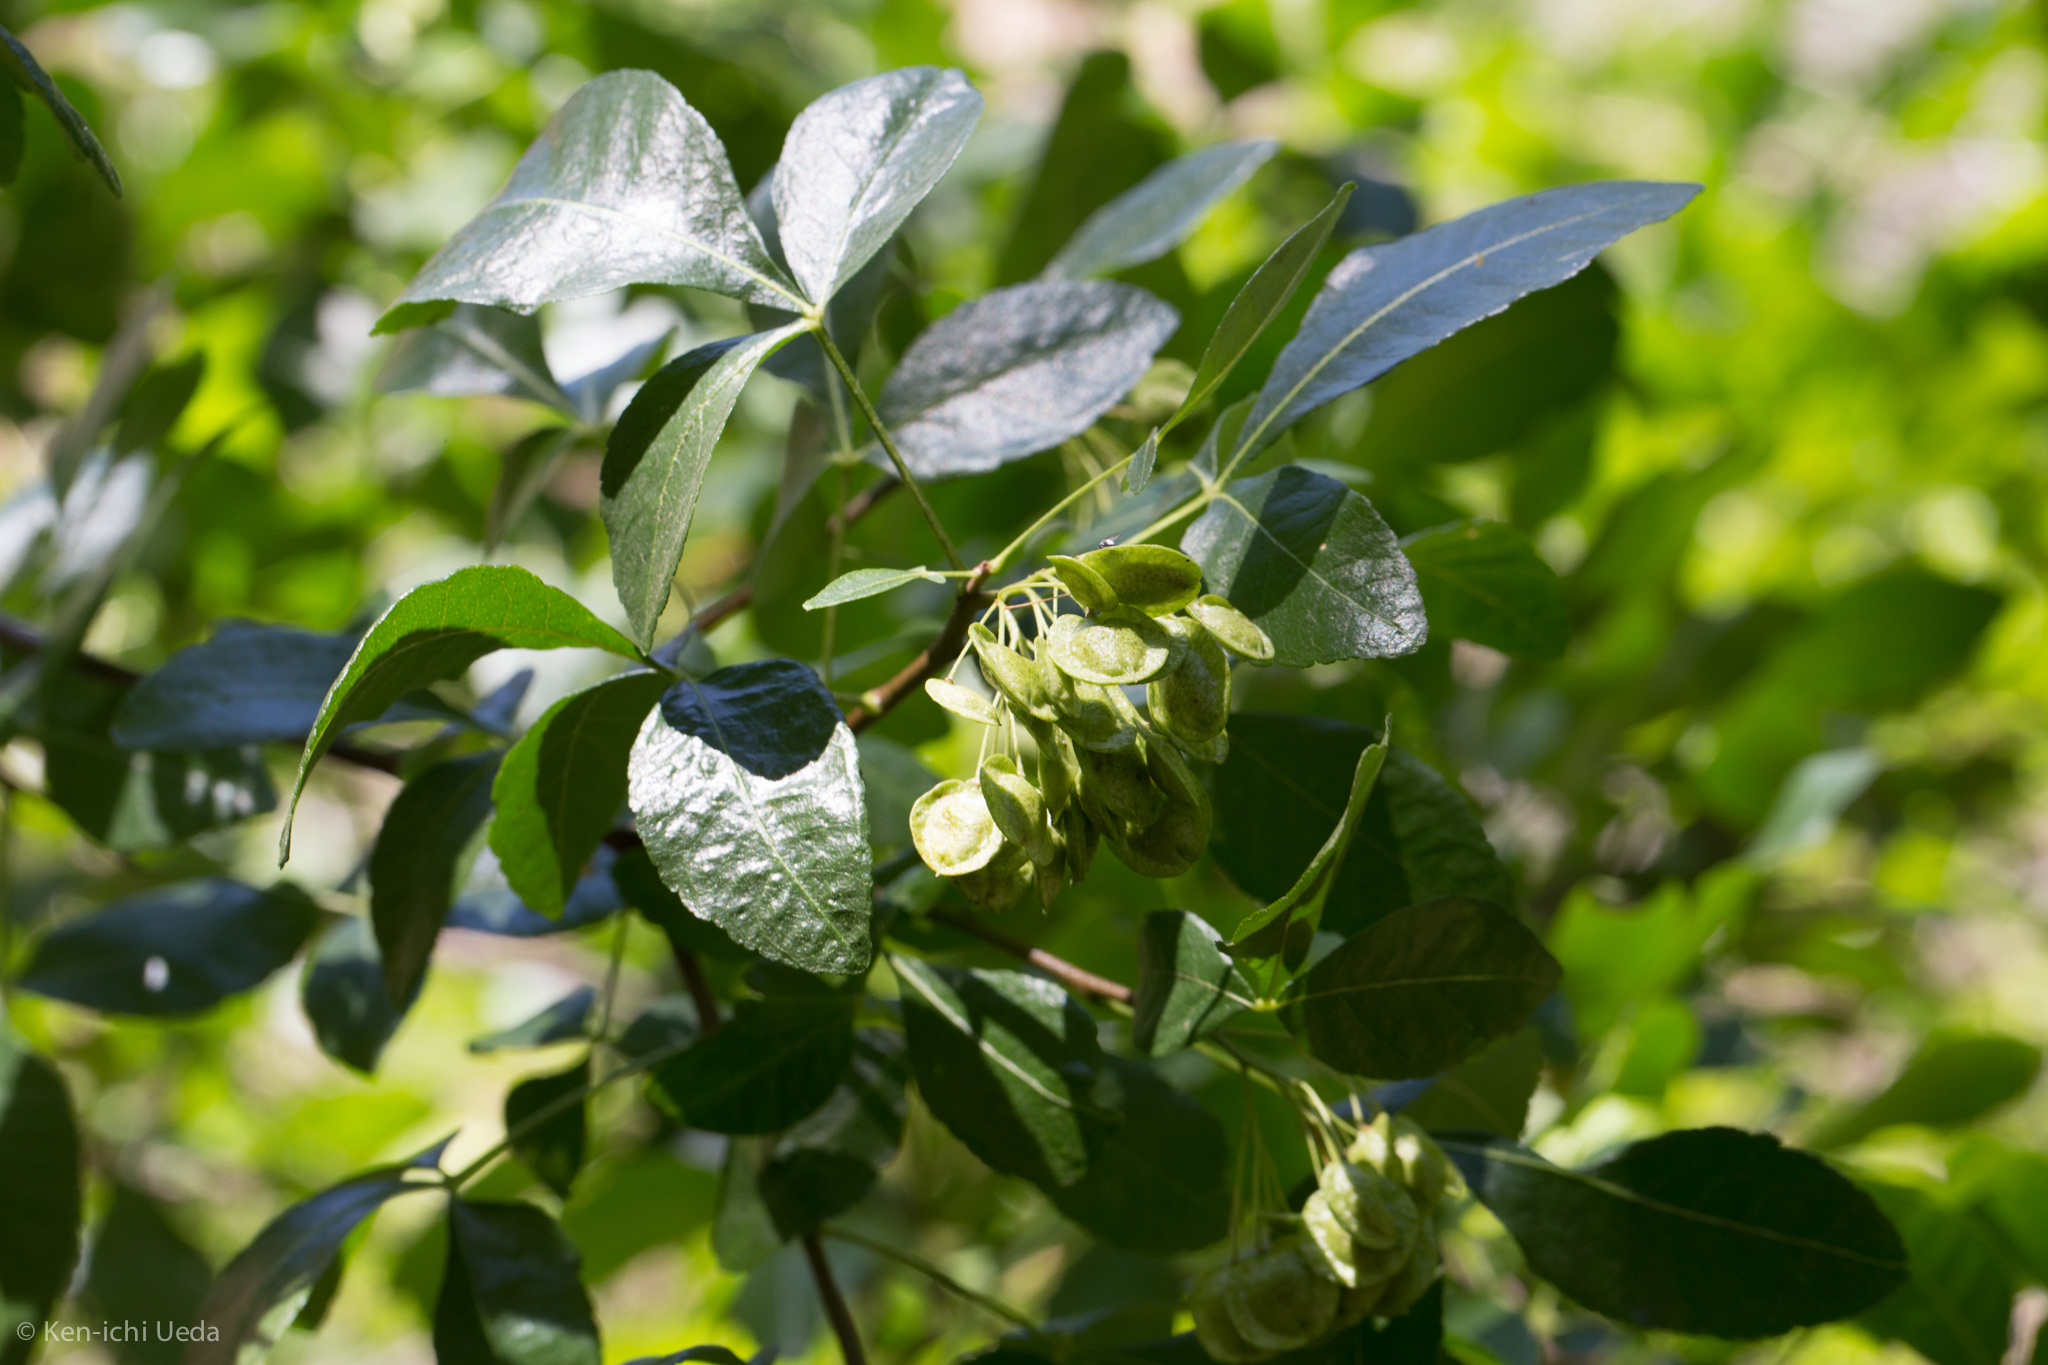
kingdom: Plantae
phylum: Tracheophyta
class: Magnoliopsida
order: Sapindales
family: Rutaceae
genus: Ptelea
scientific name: Ptelea crenulata
